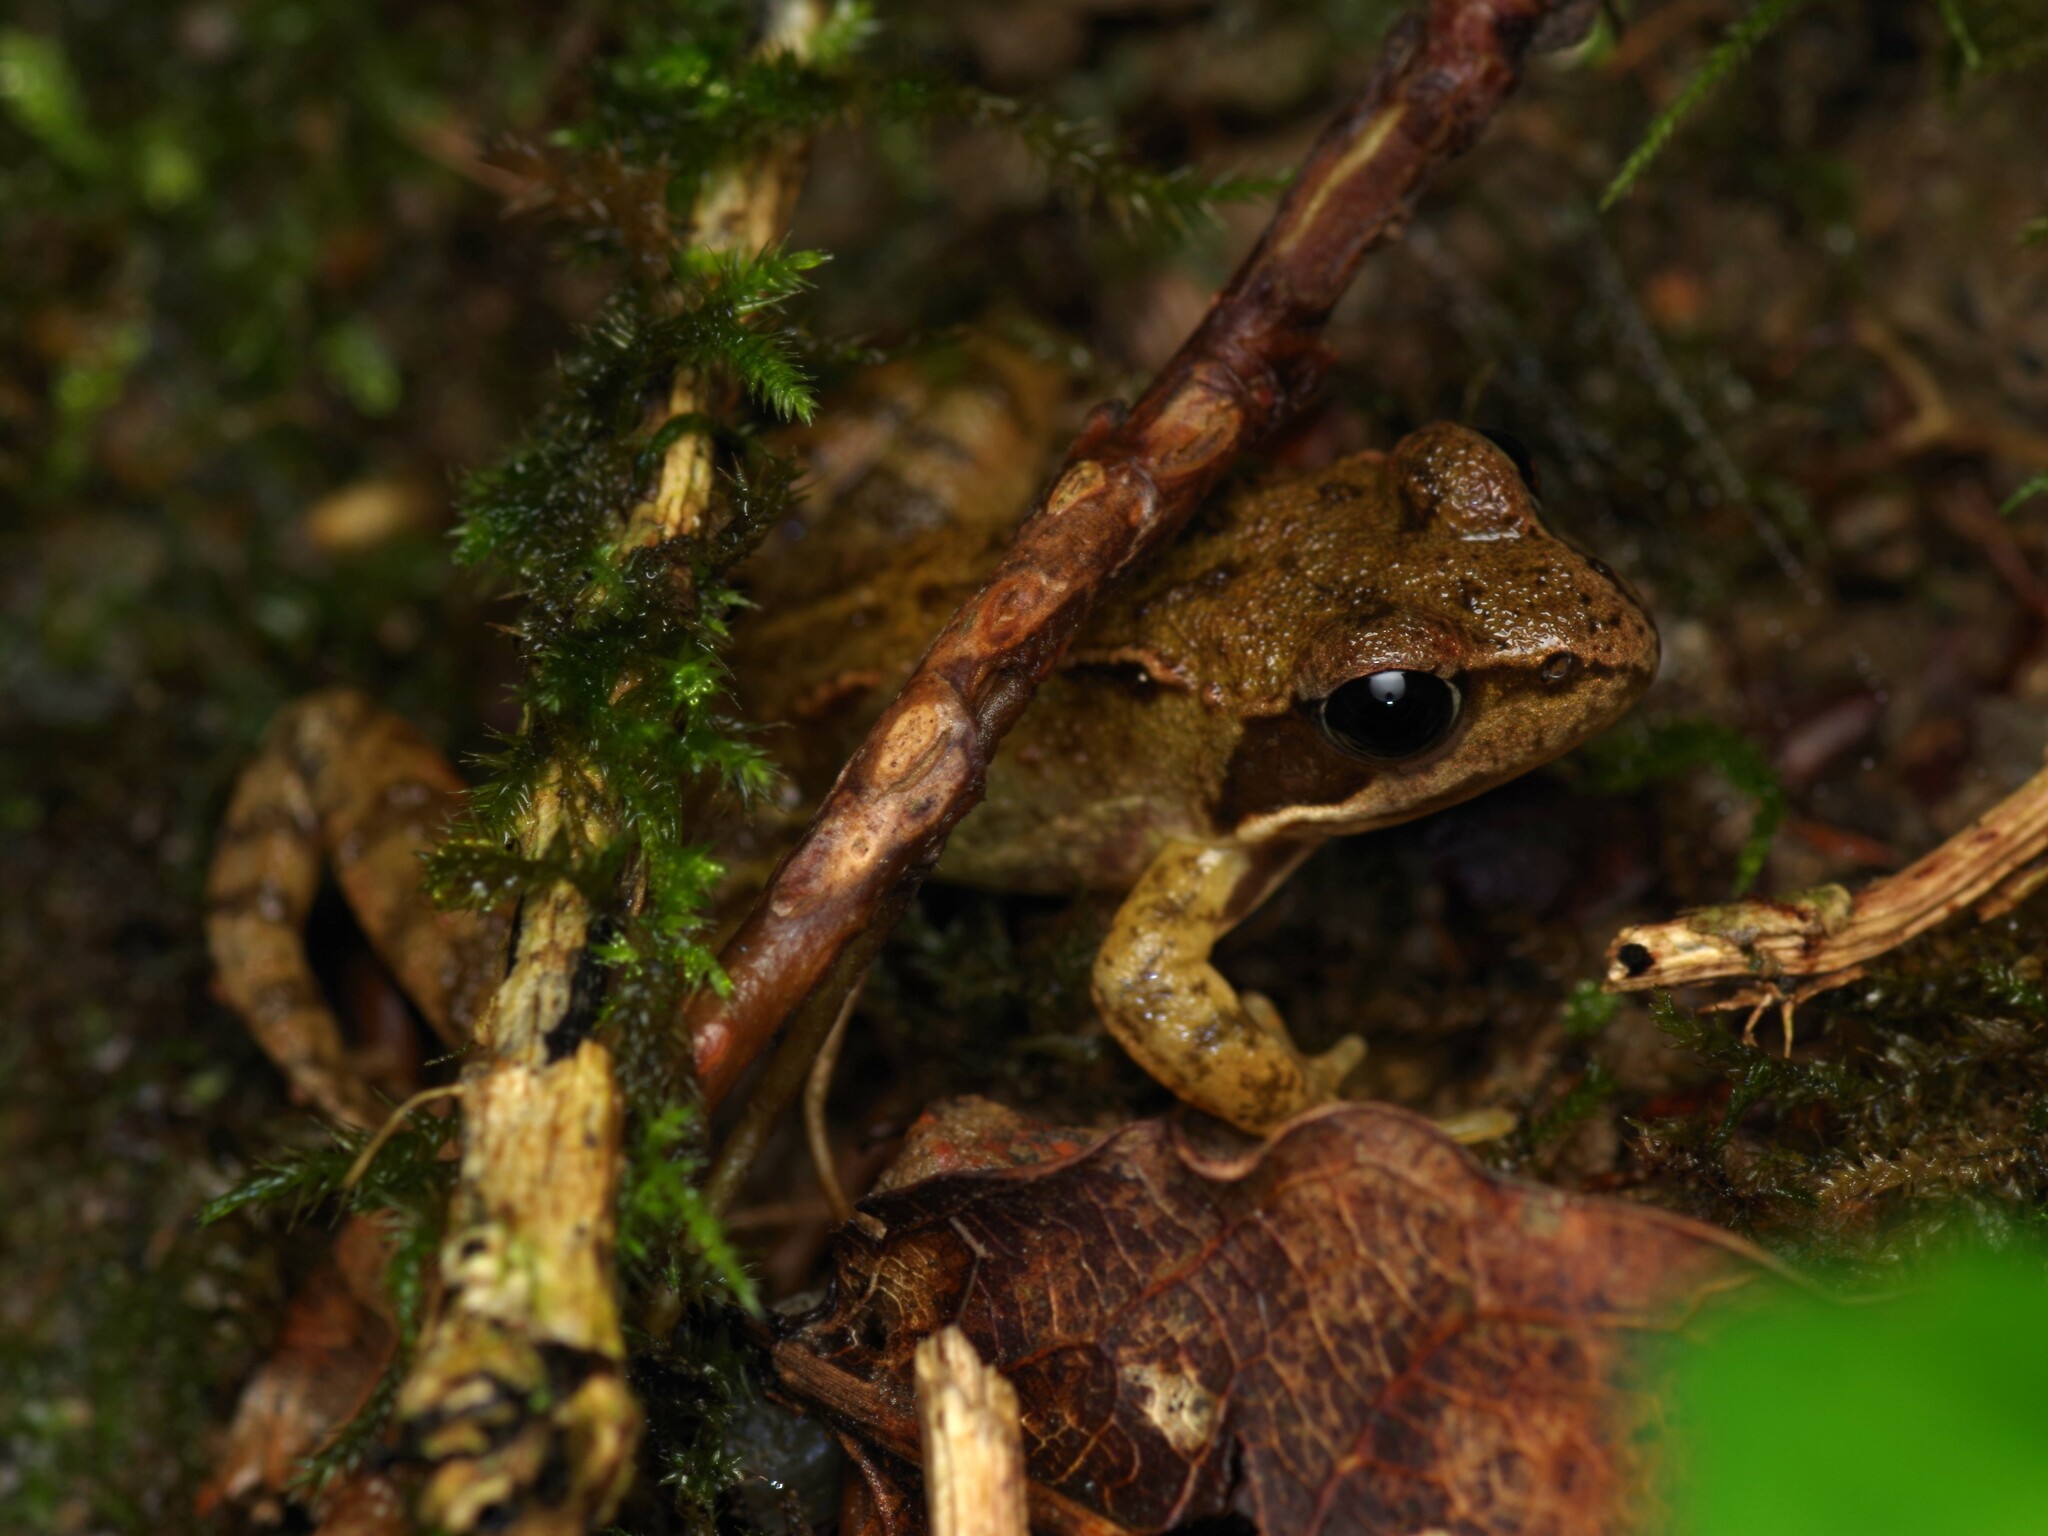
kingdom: Animalia
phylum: Chordata
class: Amphibia
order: Anura
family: Ranidae
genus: Rana
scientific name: Rana temporaria
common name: Common frog
